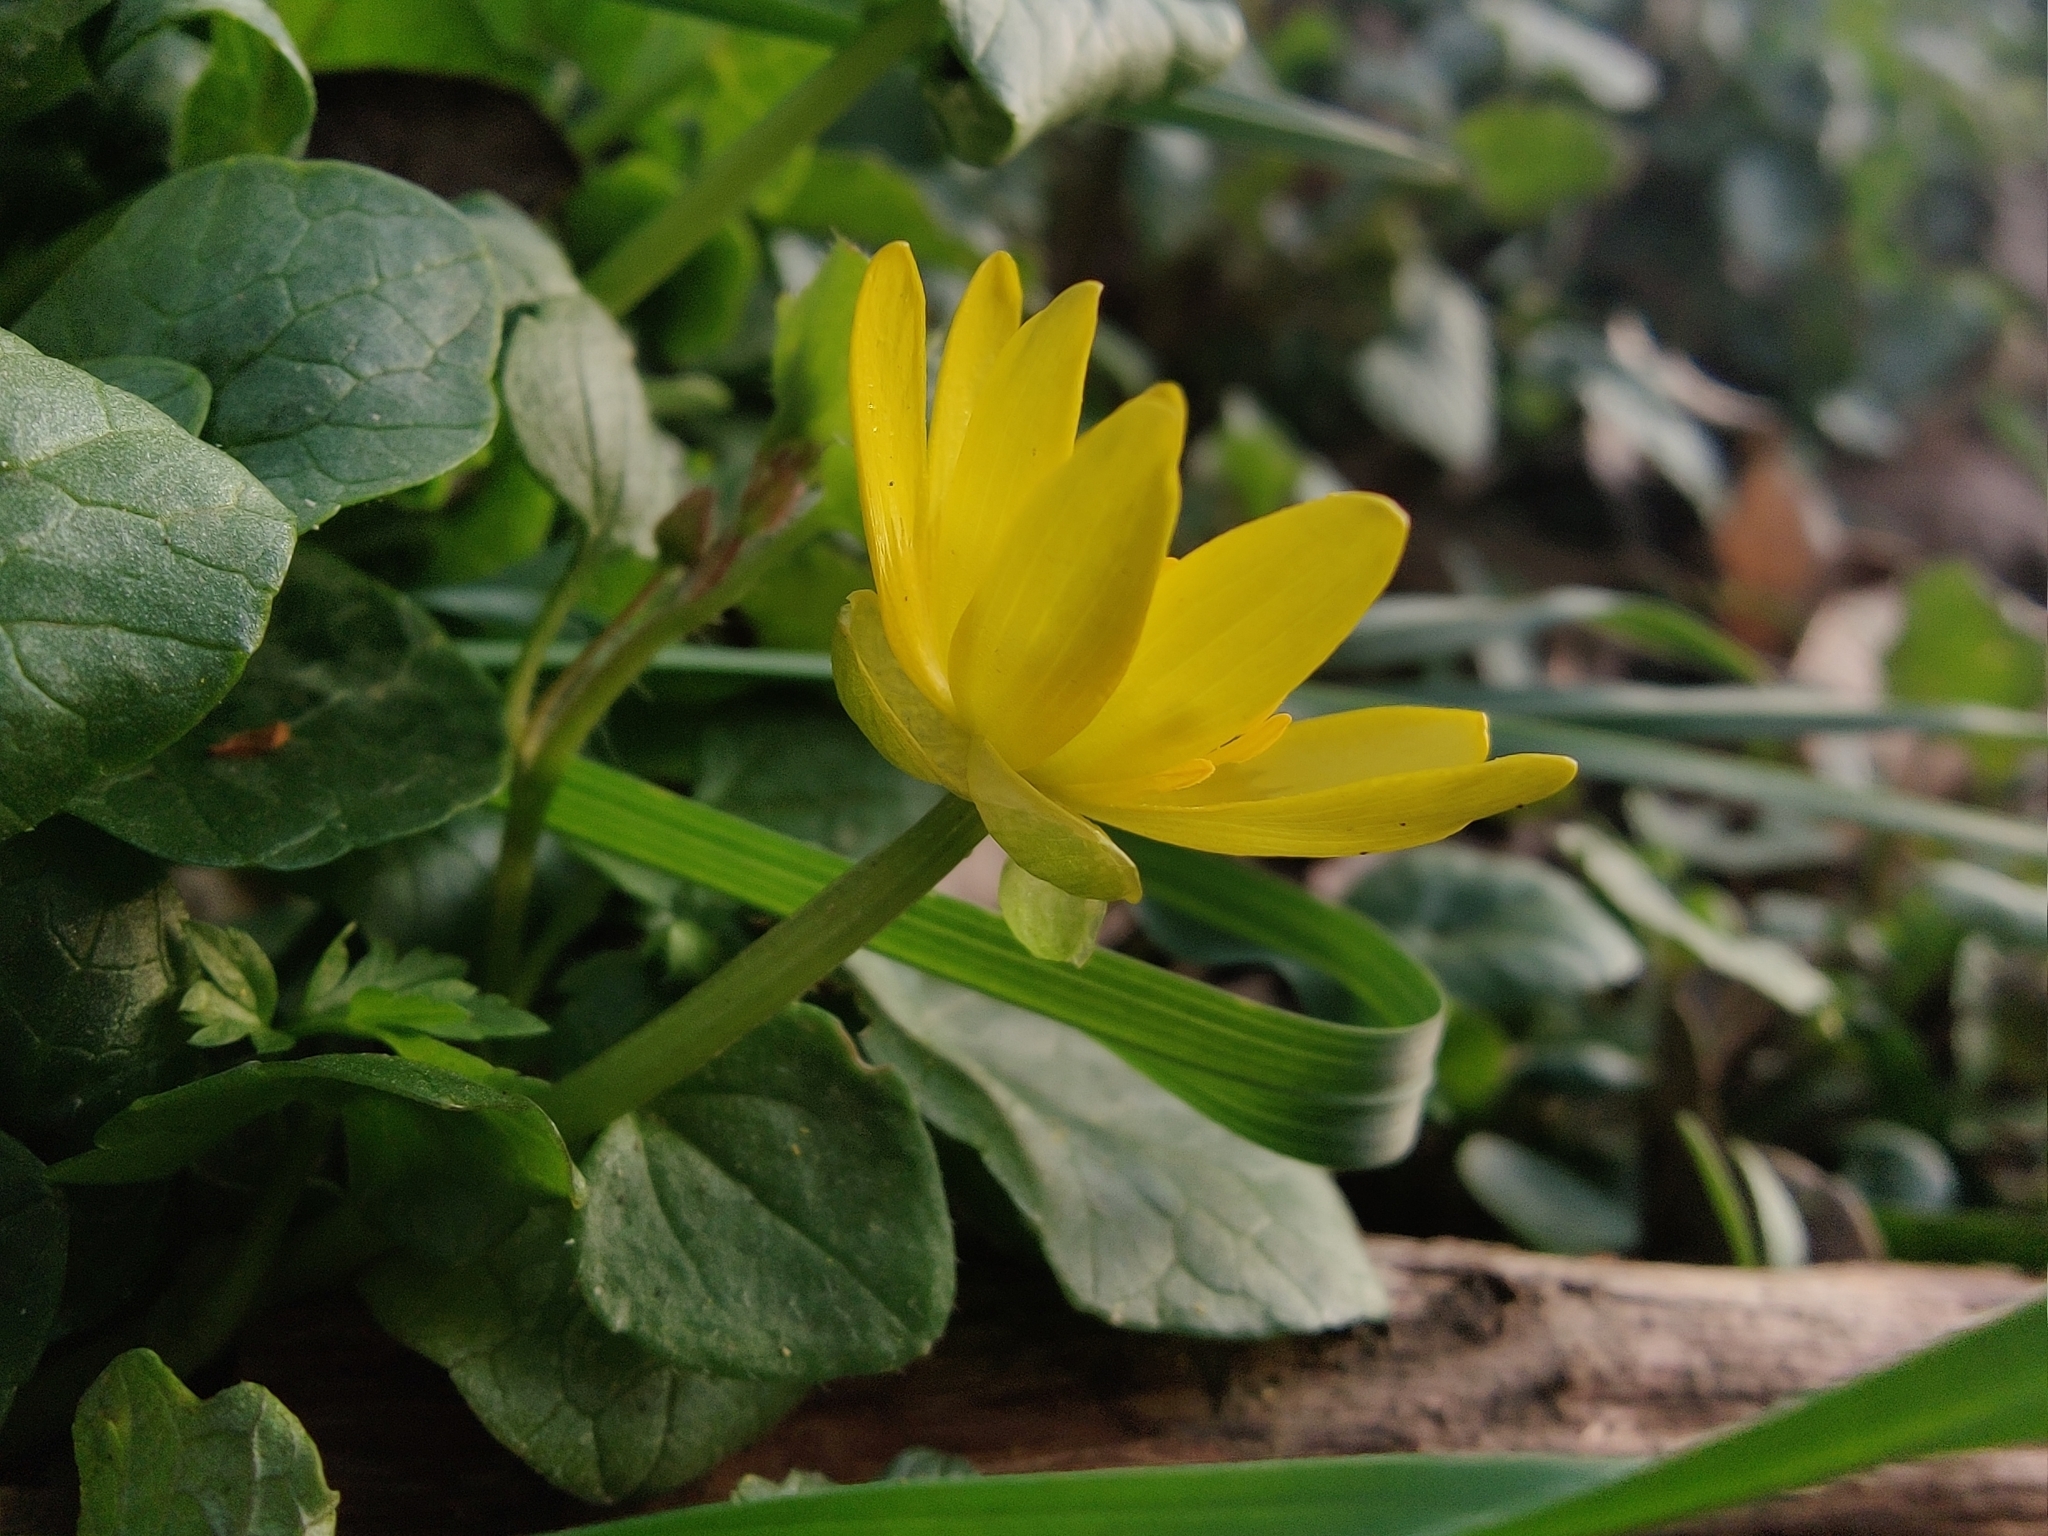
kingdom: Plantae
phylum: Tracheophyta
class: Magnoliopsida
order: Ranunculales
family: Ranunculaceae
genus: Ficaria
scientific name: Ficaria verna
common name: Lesser celandine
